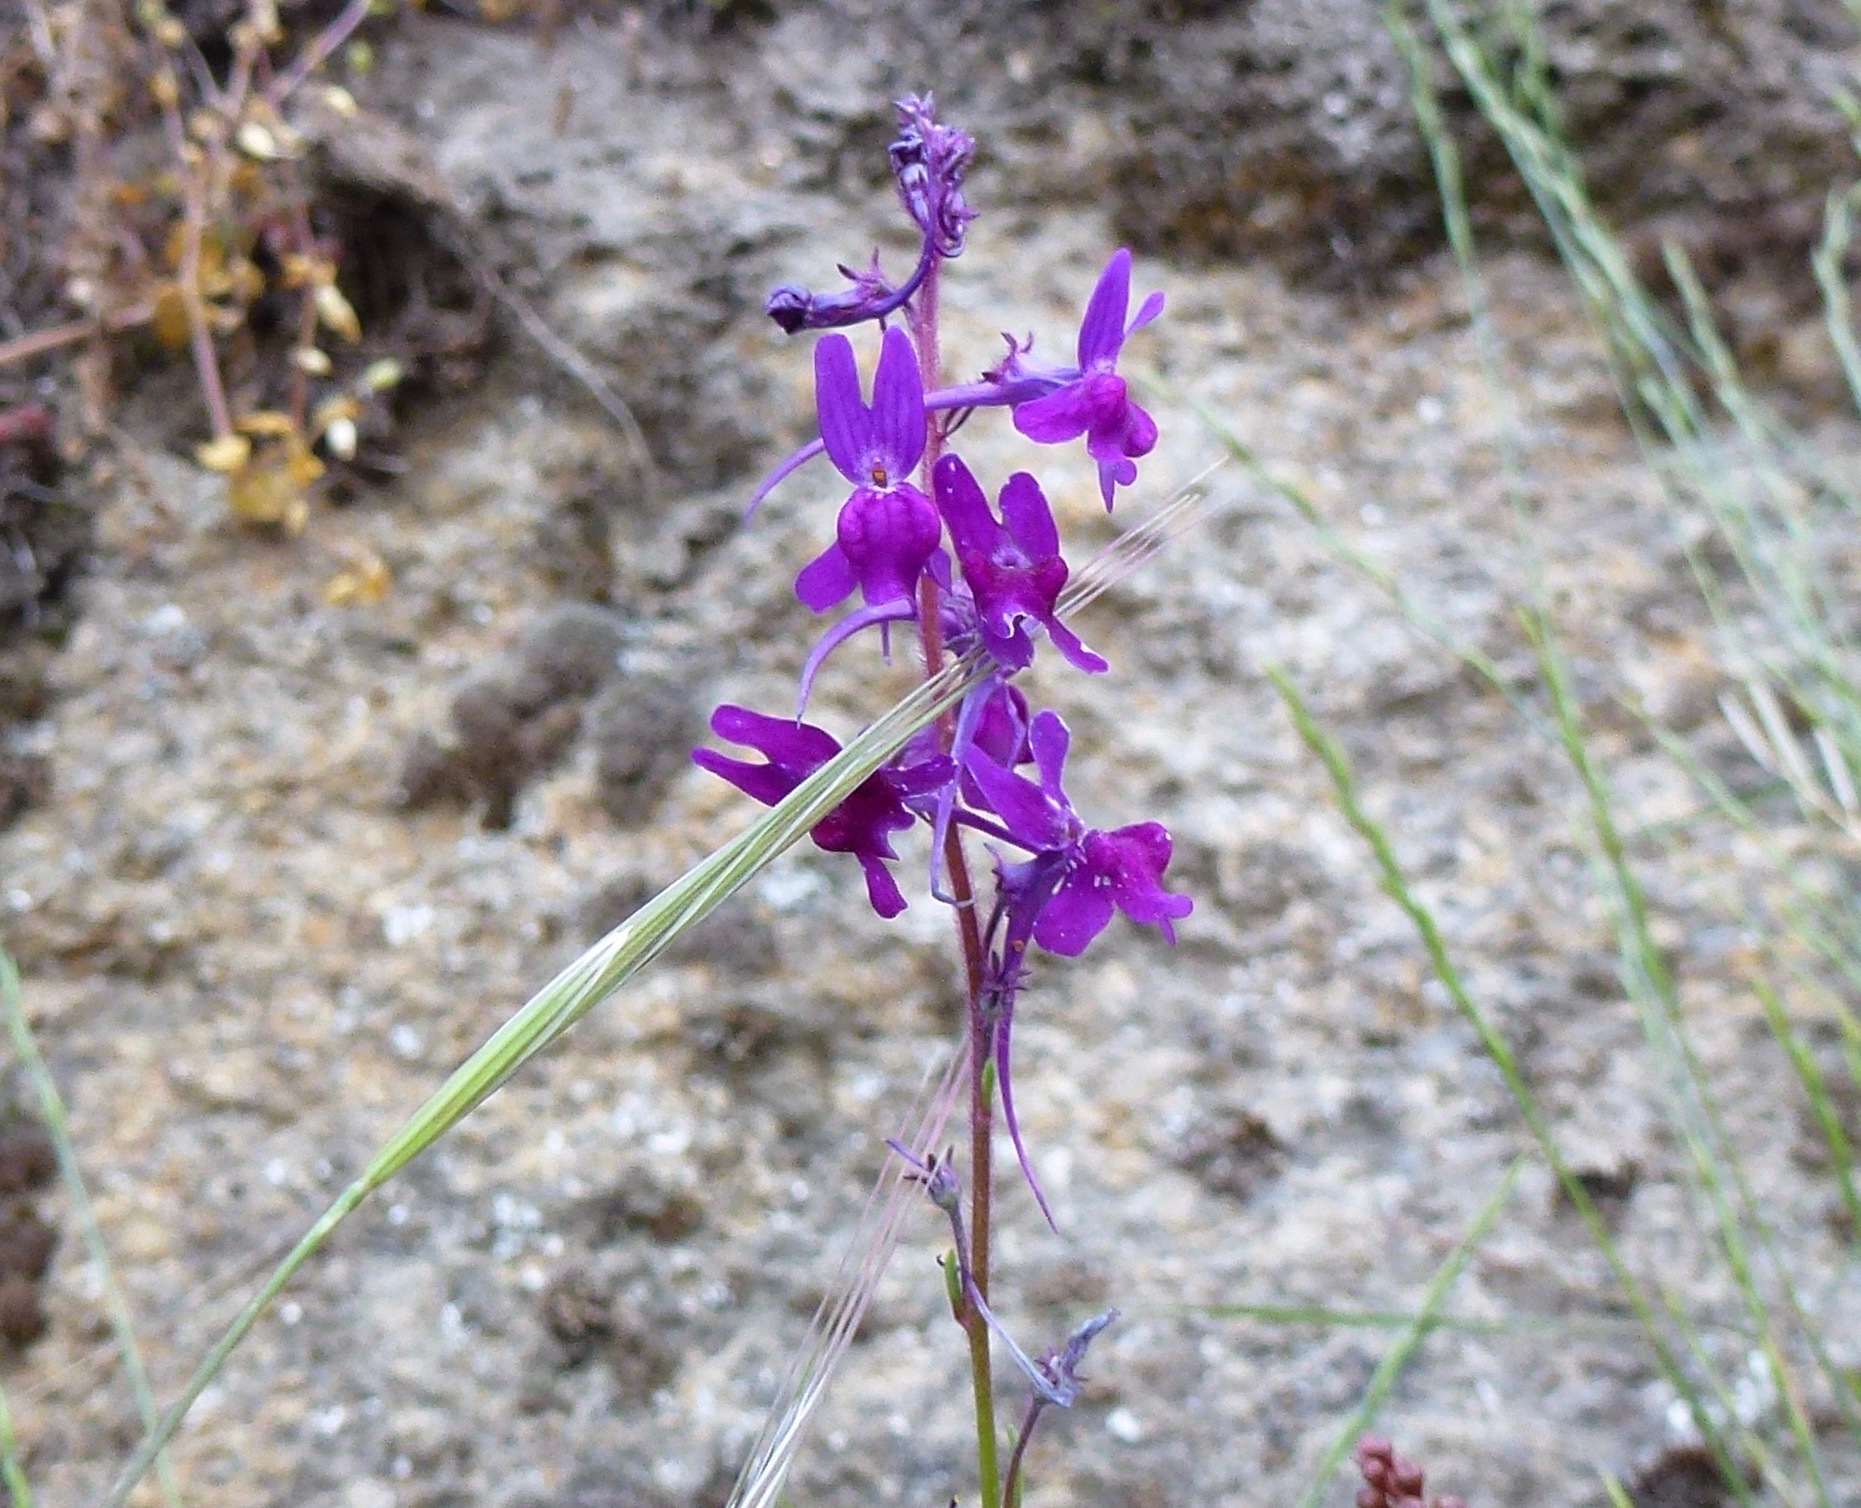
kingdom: Plantae
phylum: Tracheophyta
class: Magnoliopsida
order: Lamiales
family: Plantaginaceae
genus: Linaria
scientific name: Linaria elegans
